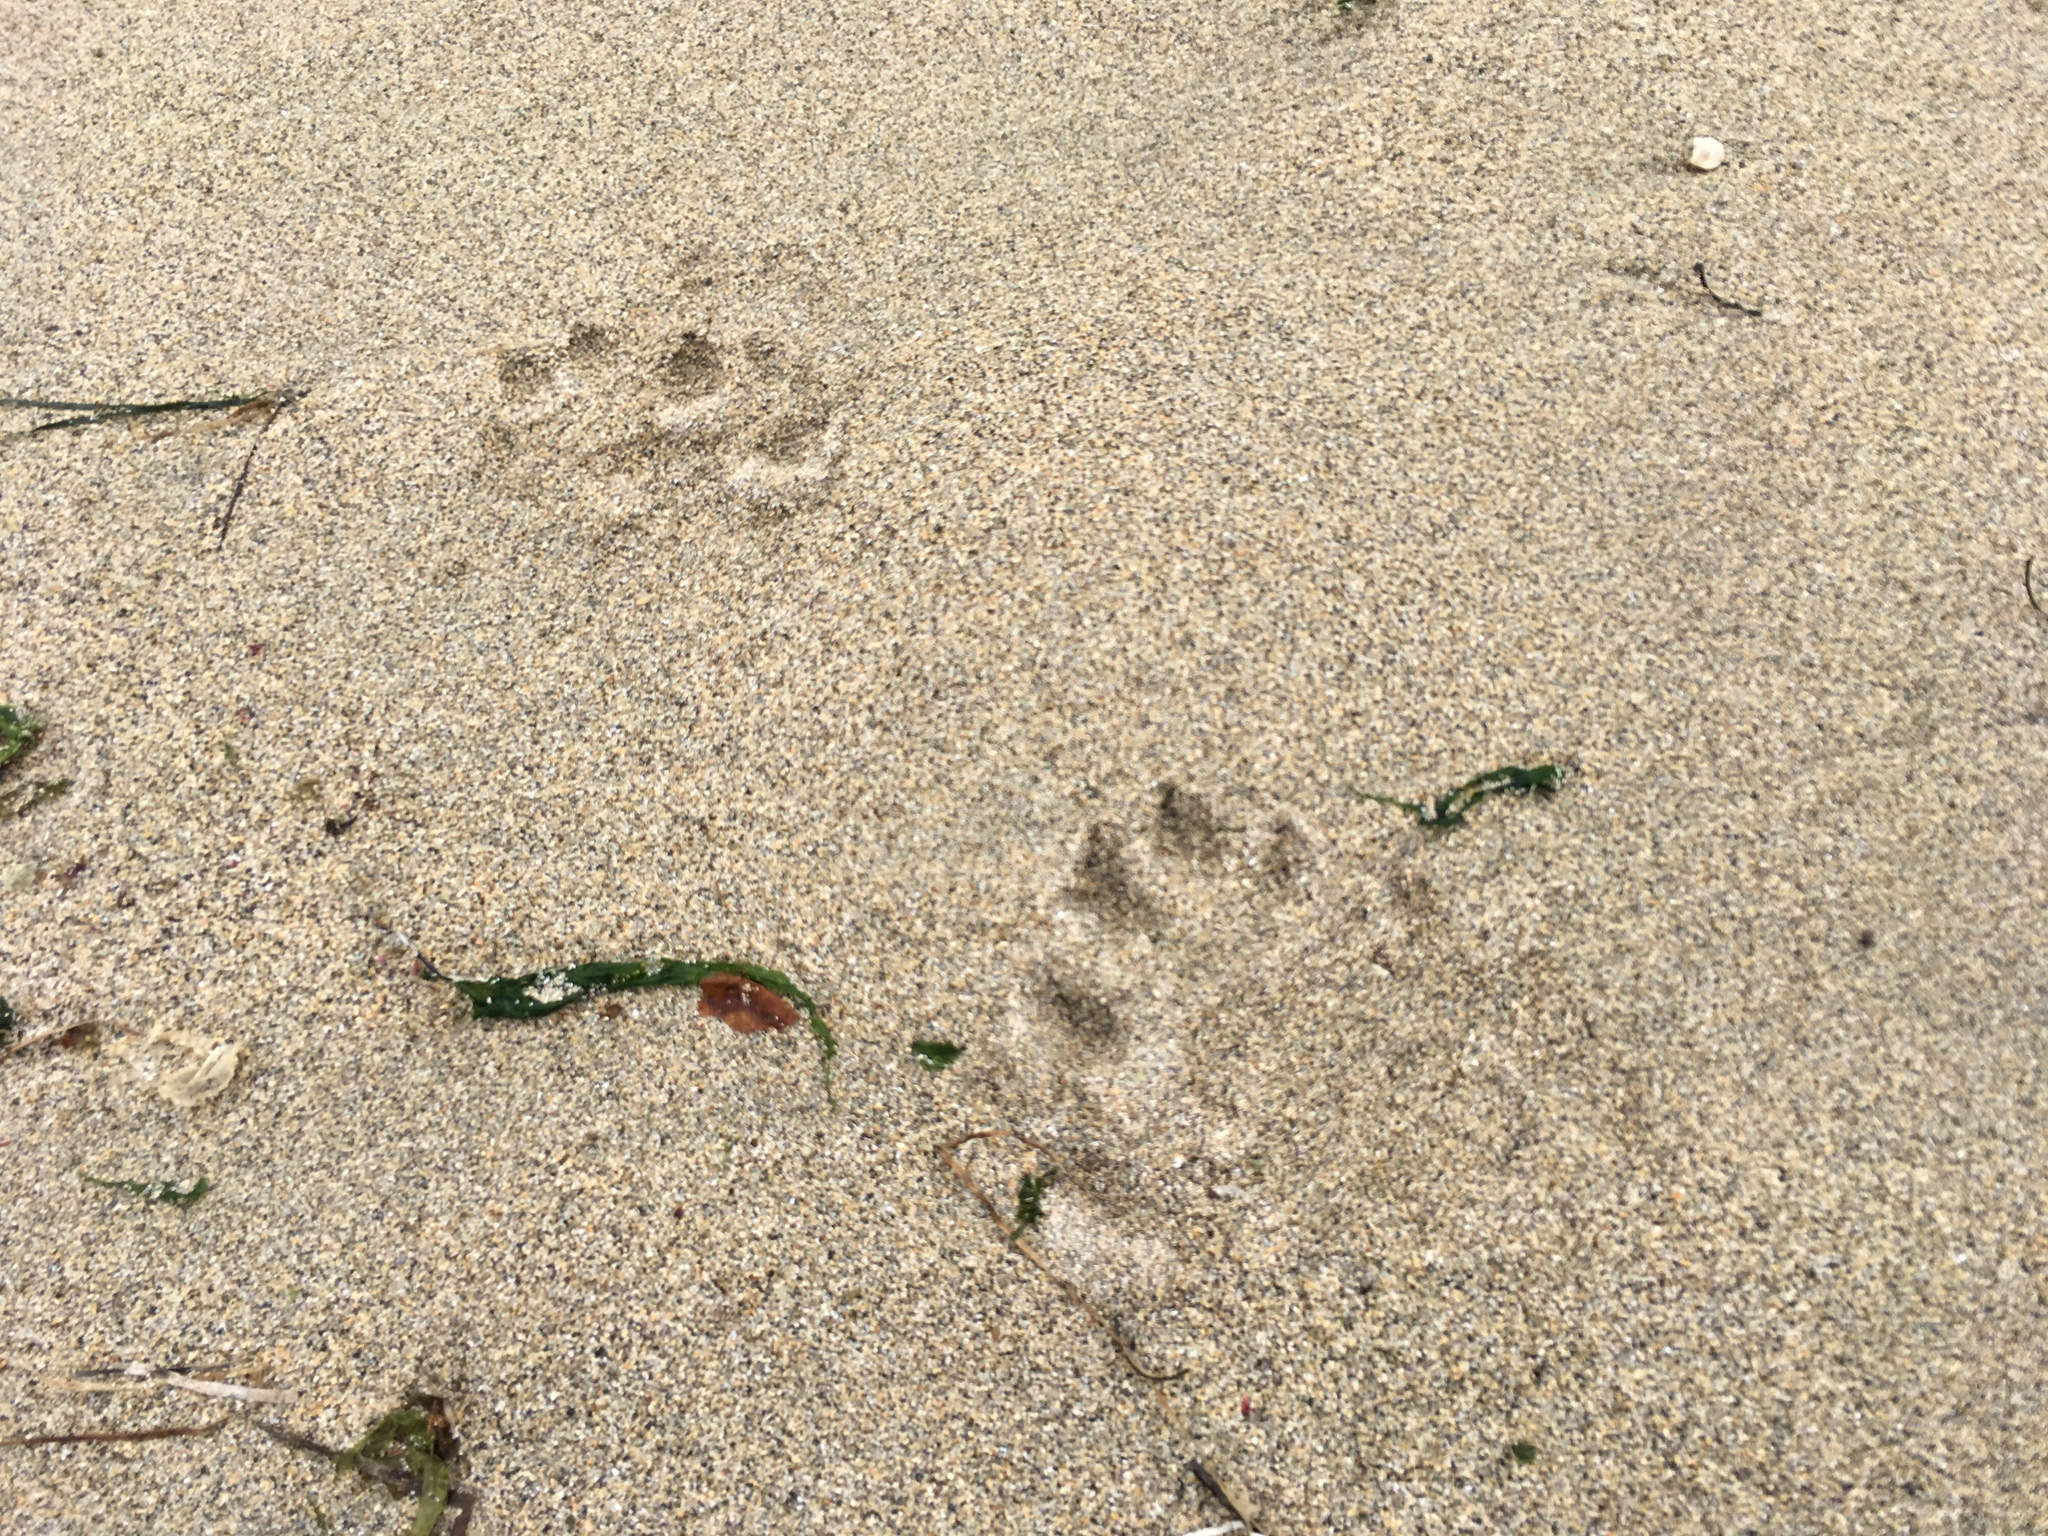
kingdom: Animalia
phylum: Chordata
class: Mammalia
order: Carnivora
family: Mustelidae
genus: Lontra
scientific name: Lontra canadensis
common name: North american river otter
